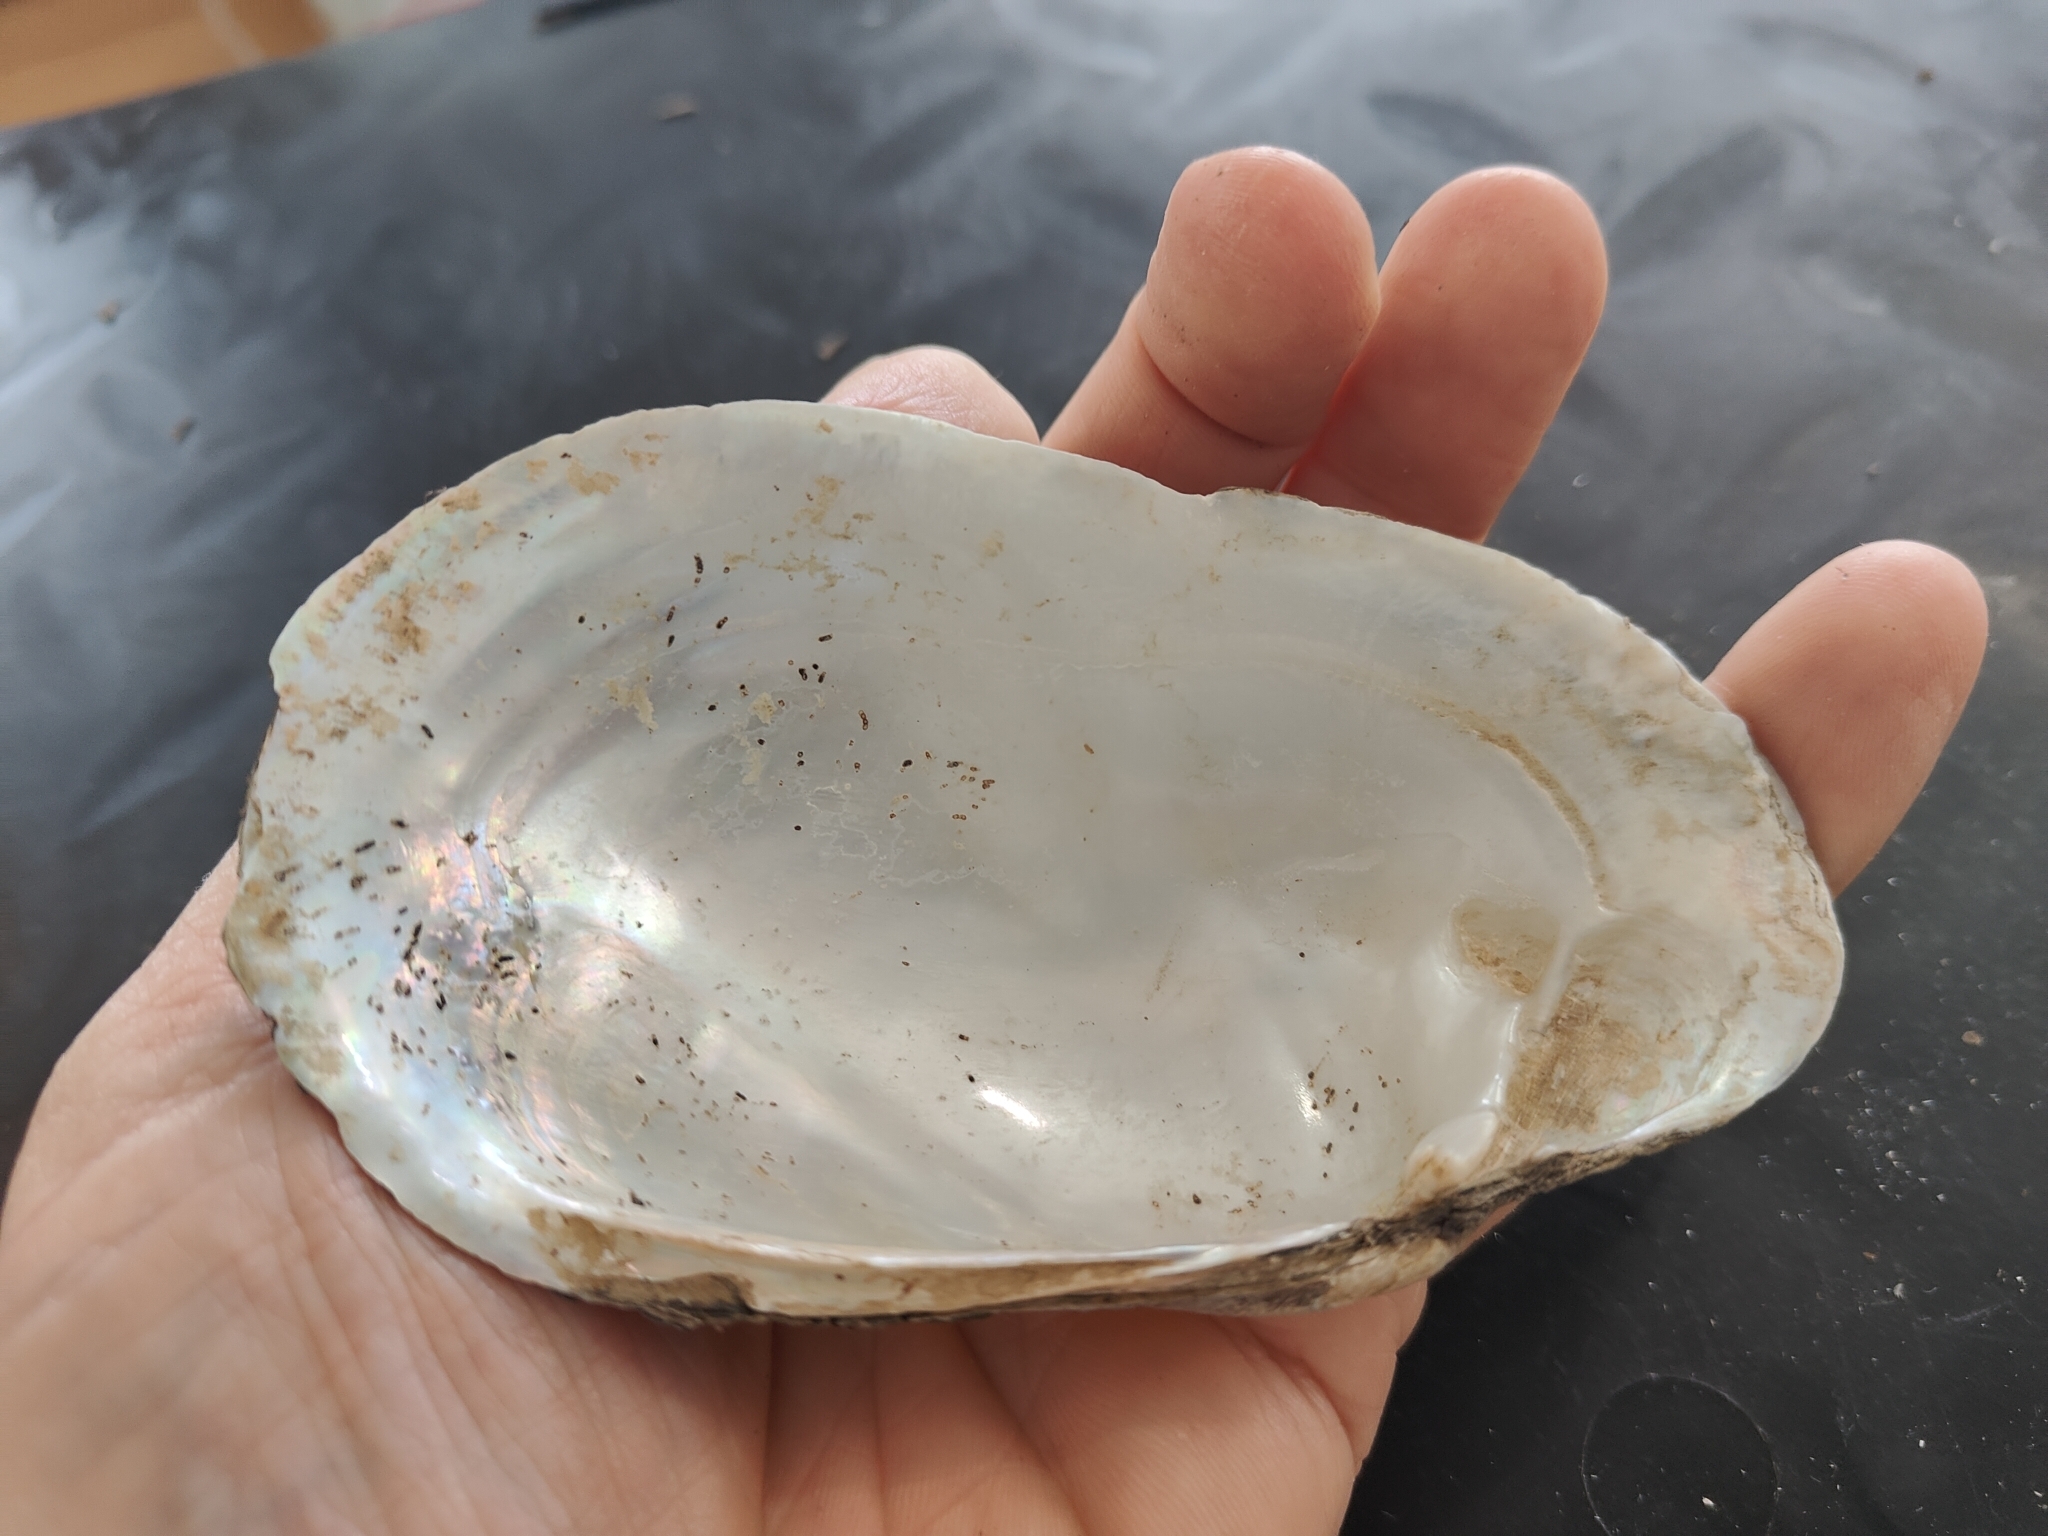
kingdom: Animalia
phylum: Mollusca
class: Bivalvia
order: Unionida
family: Unionidae
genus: Lampsilis
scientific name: Lampsilis siliquoidea
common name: Fatmucket
